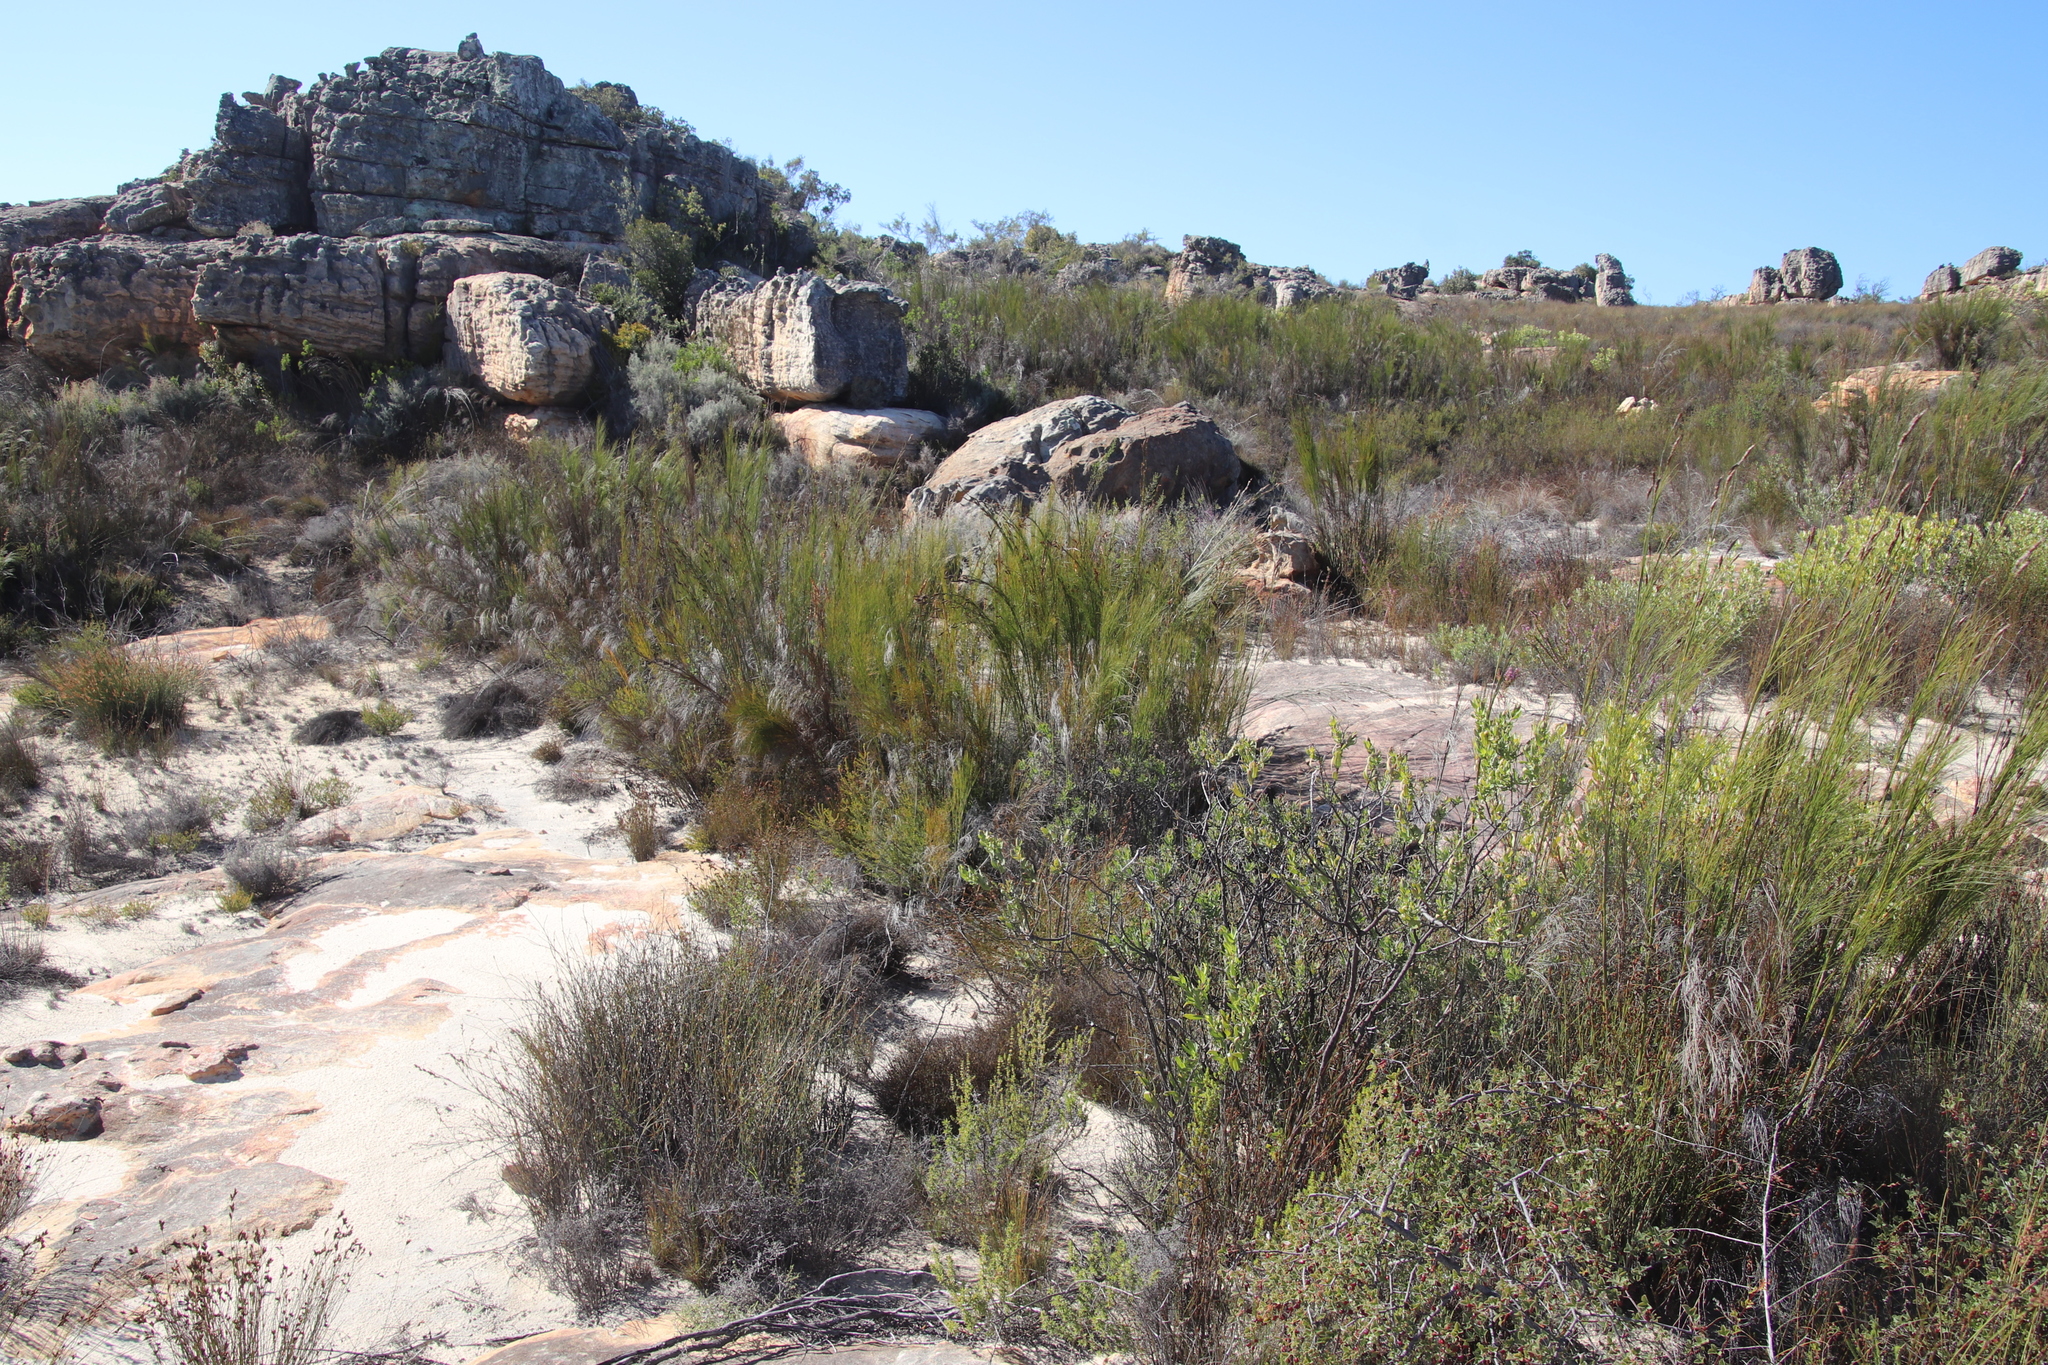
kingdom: Plantae
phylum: Tracheophyta
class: Liliopsida
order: Poales
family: Restionaceae
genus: Cannomois
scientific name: Cannomois robusta
